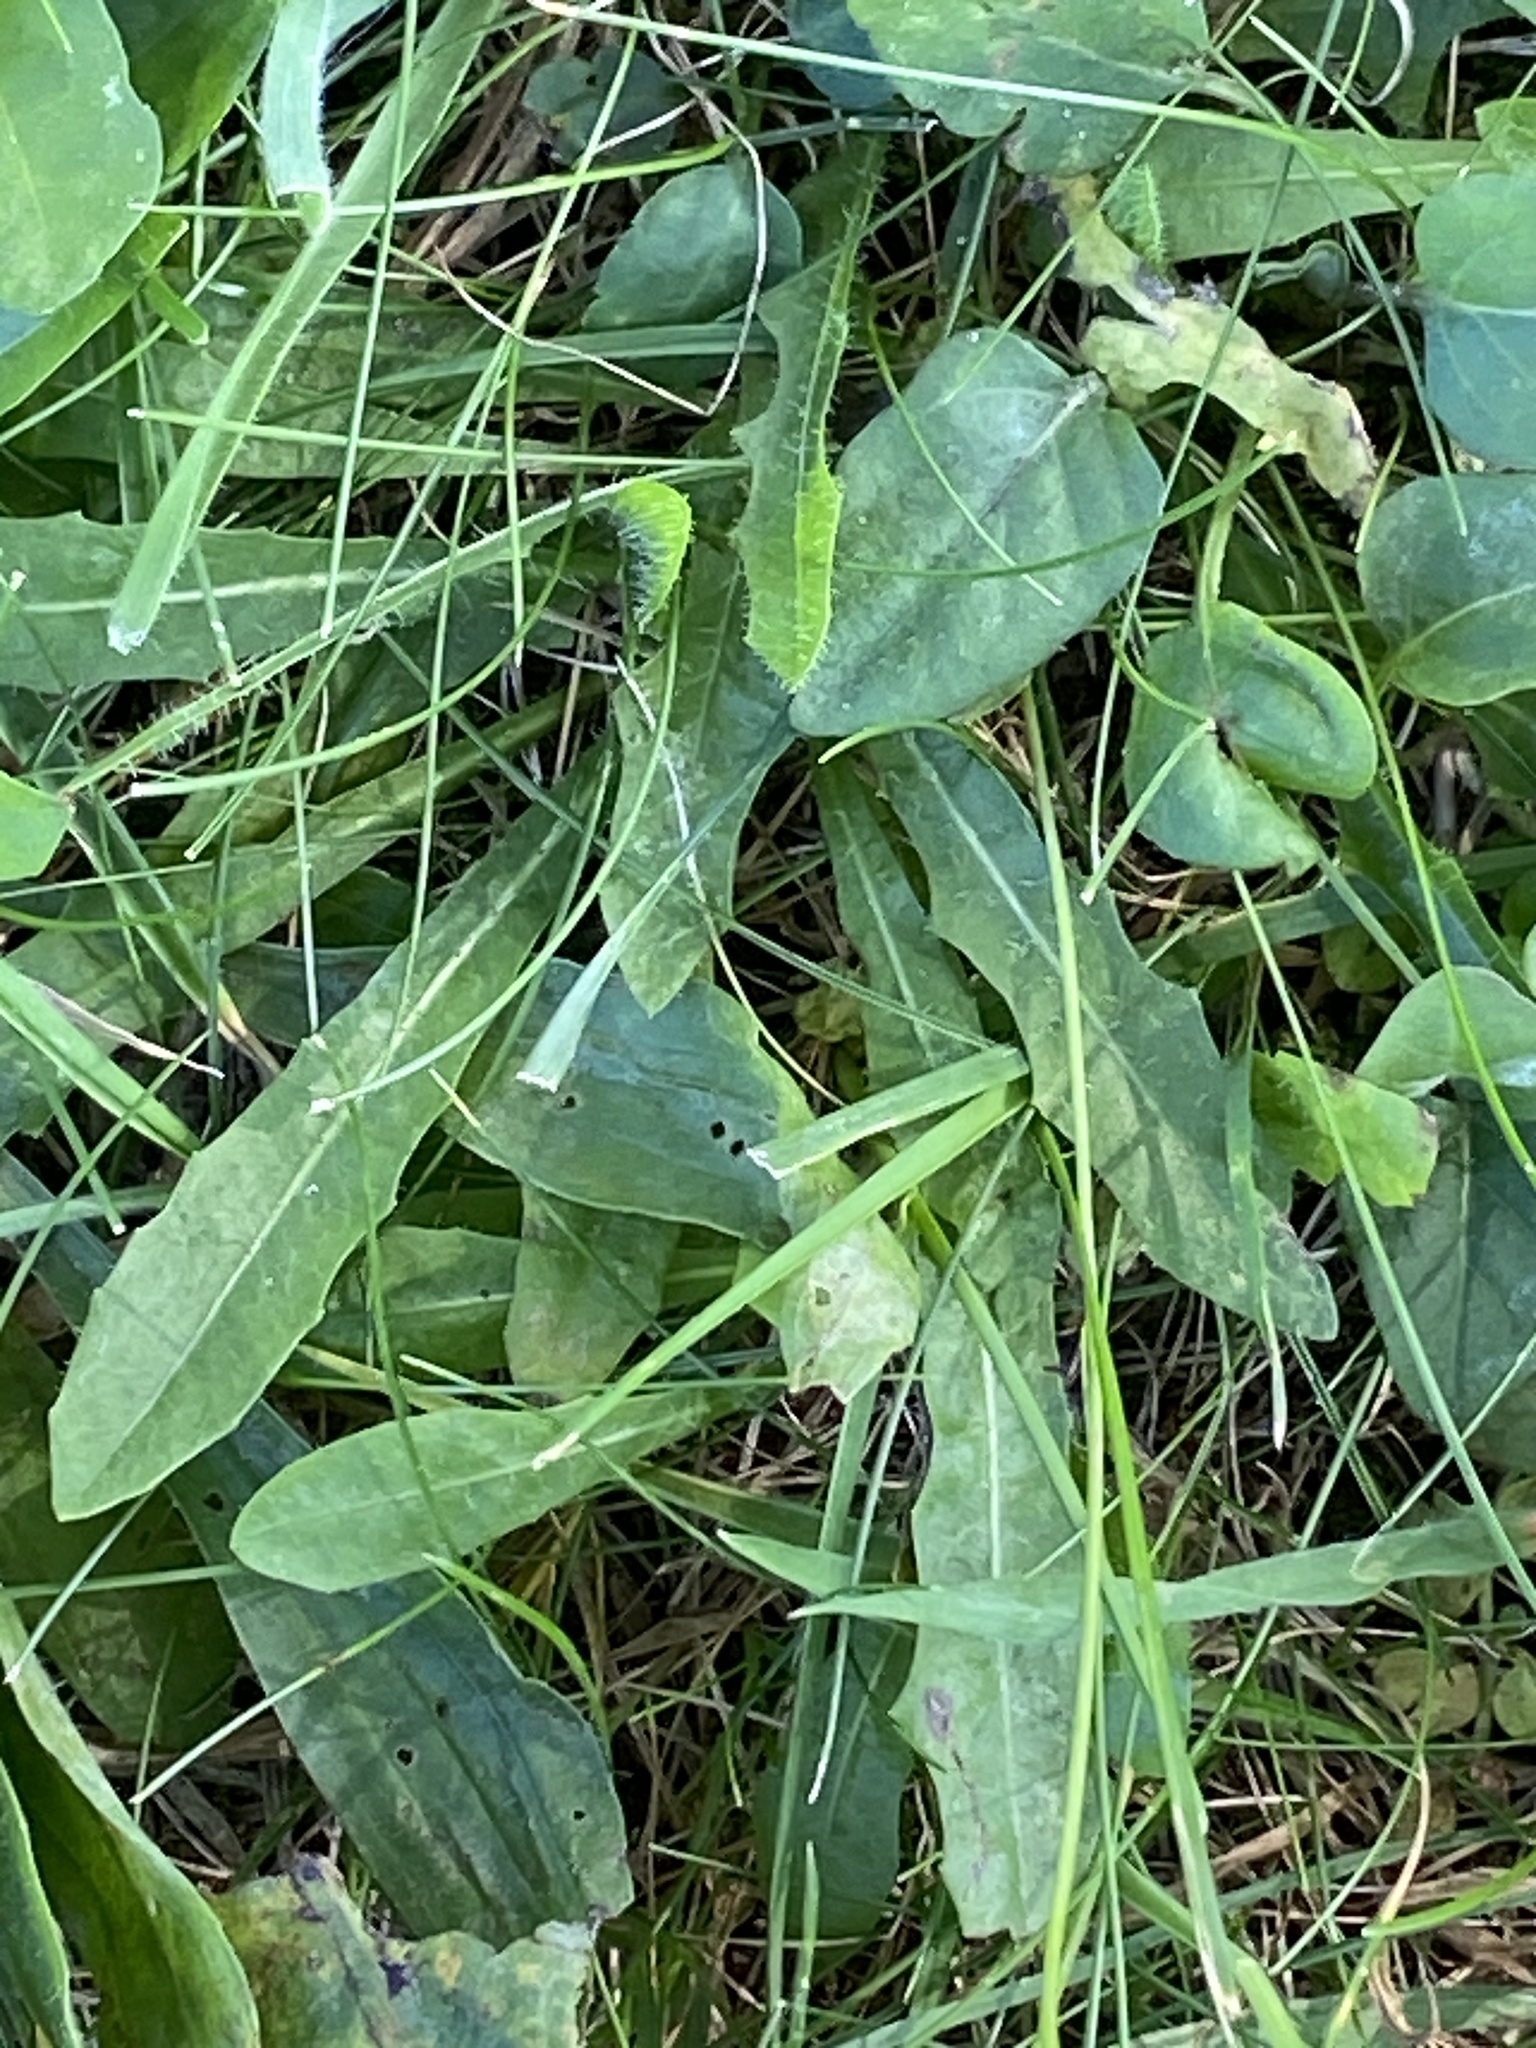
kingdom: Plantae
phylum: Tracheophyta
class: Magnoliopsida
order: Asterales
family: Asteraceae
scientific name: Asteraceae
